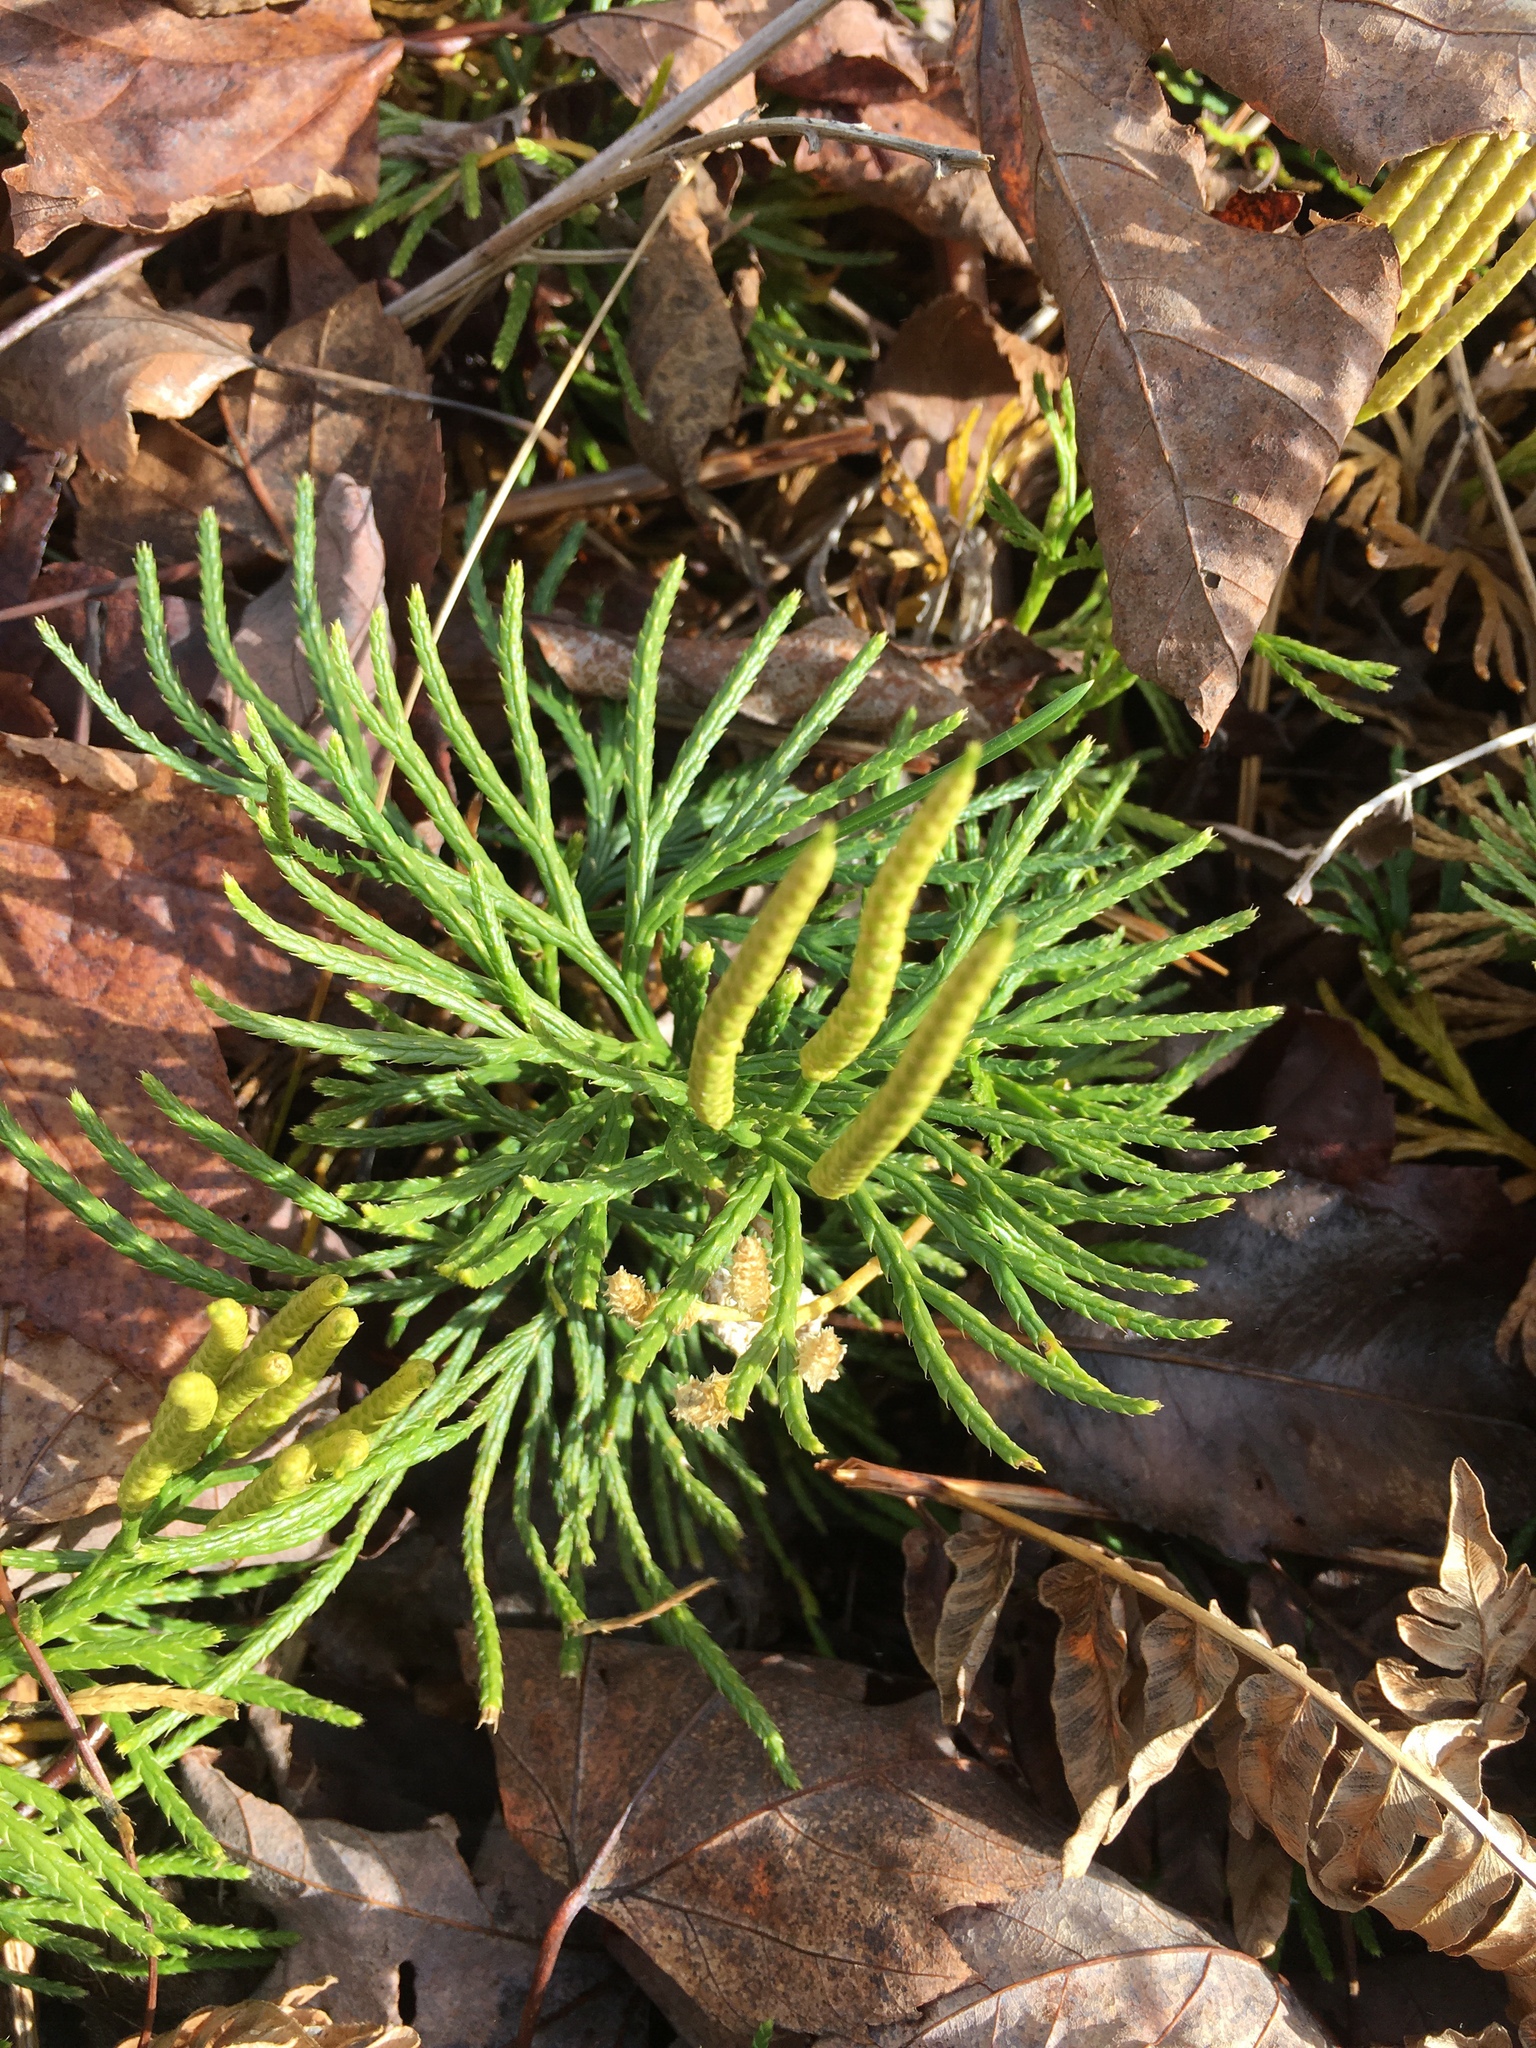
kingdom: Plantae
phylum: Tracheophyta
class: Lycopodiopsida
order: Lycopodiales
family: Lycopodiaceae
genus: Diphasiastrum
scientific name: Diphasiastrum digitatum
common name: Southern running-pine
